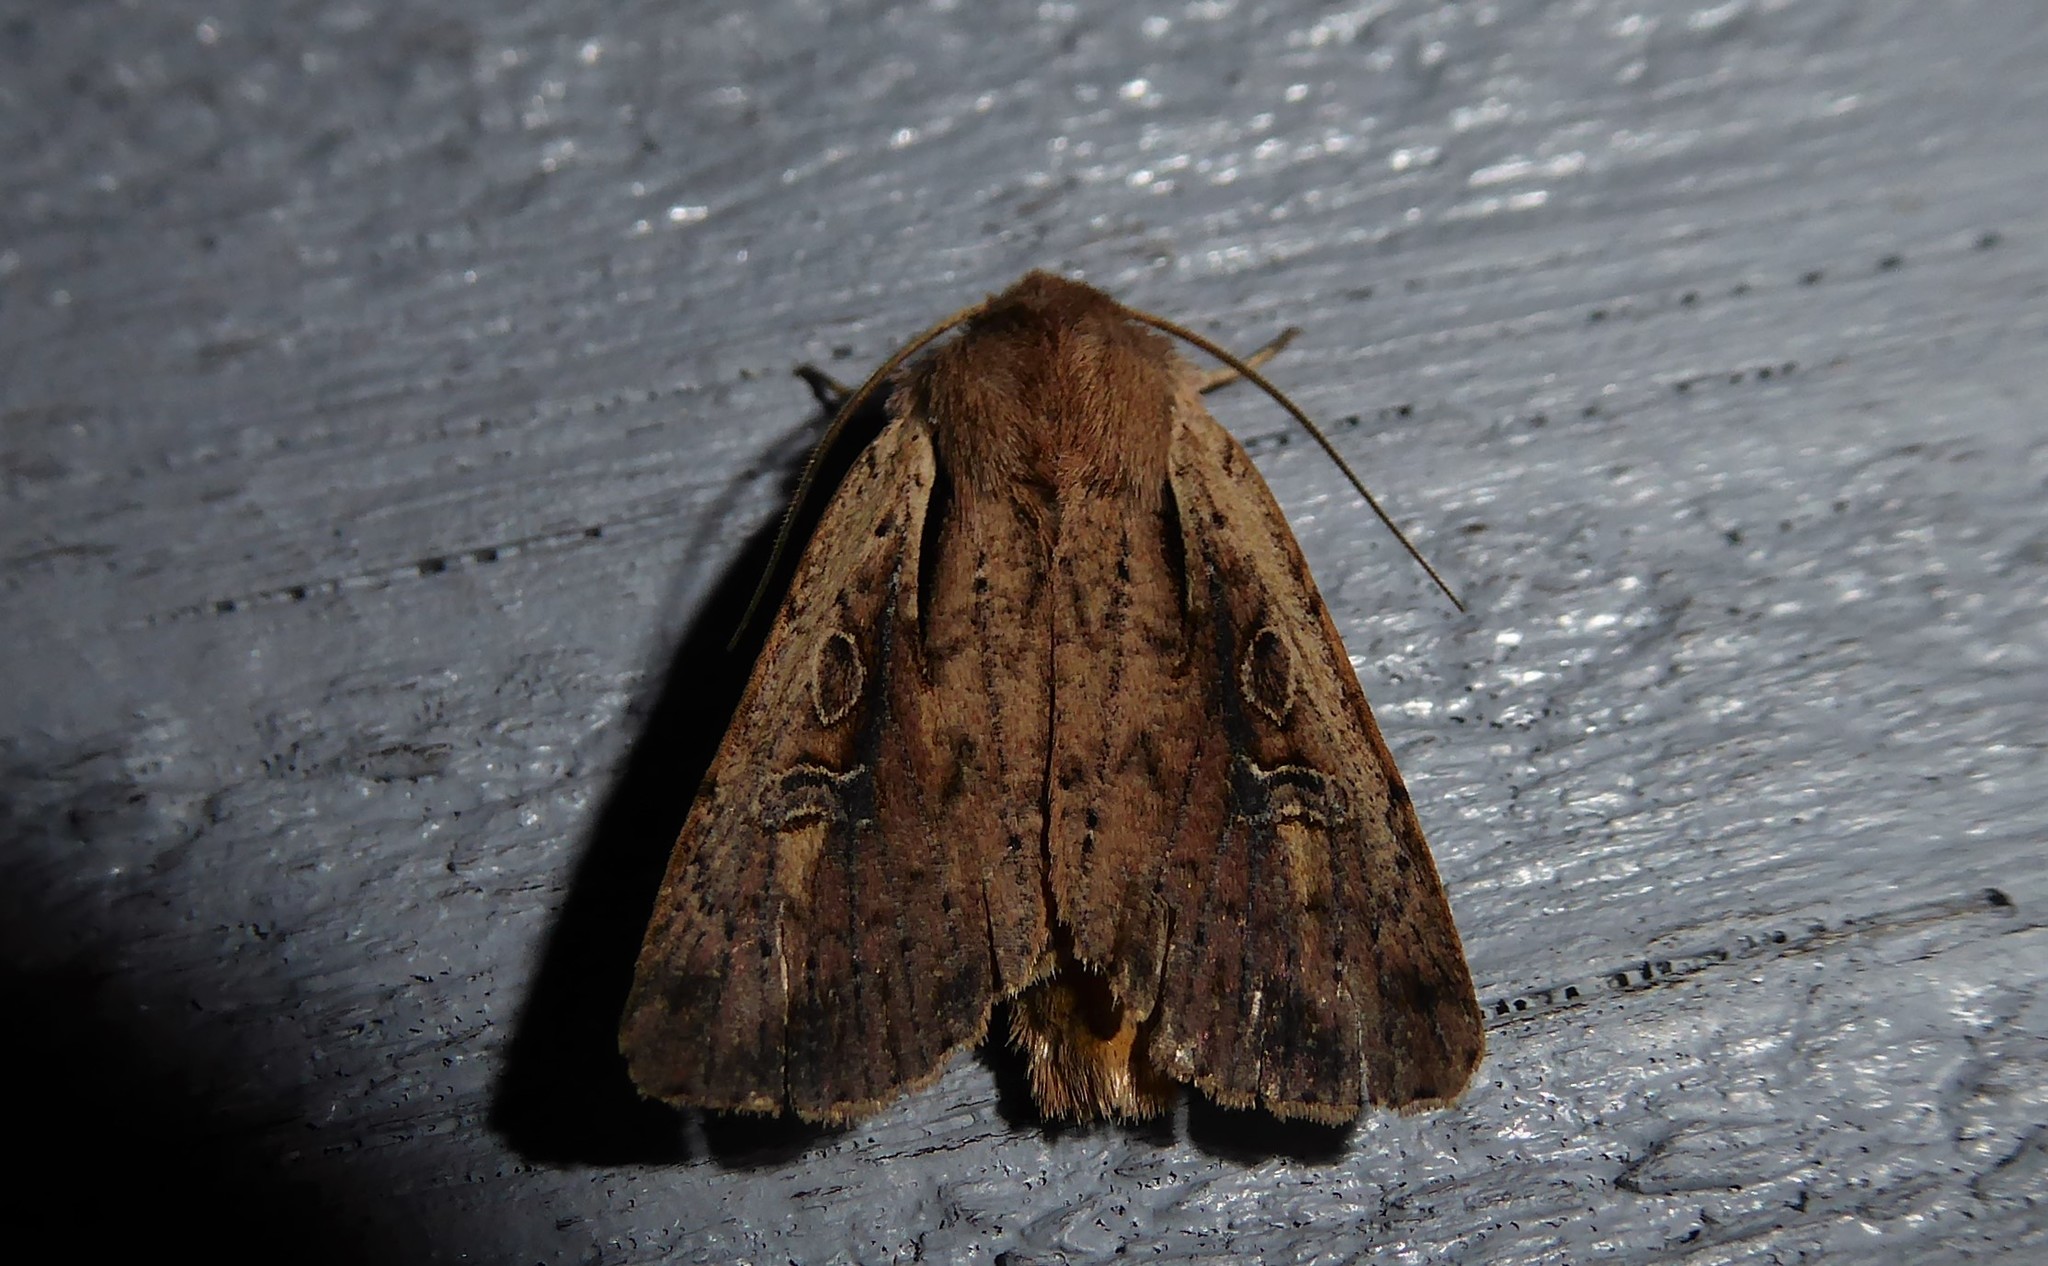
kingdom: Animalia
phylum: Arthropoda
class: Insecta
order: Lepidoptera
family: Noctuidae
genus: Ichneutica
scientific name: Ichneutica atristriga
